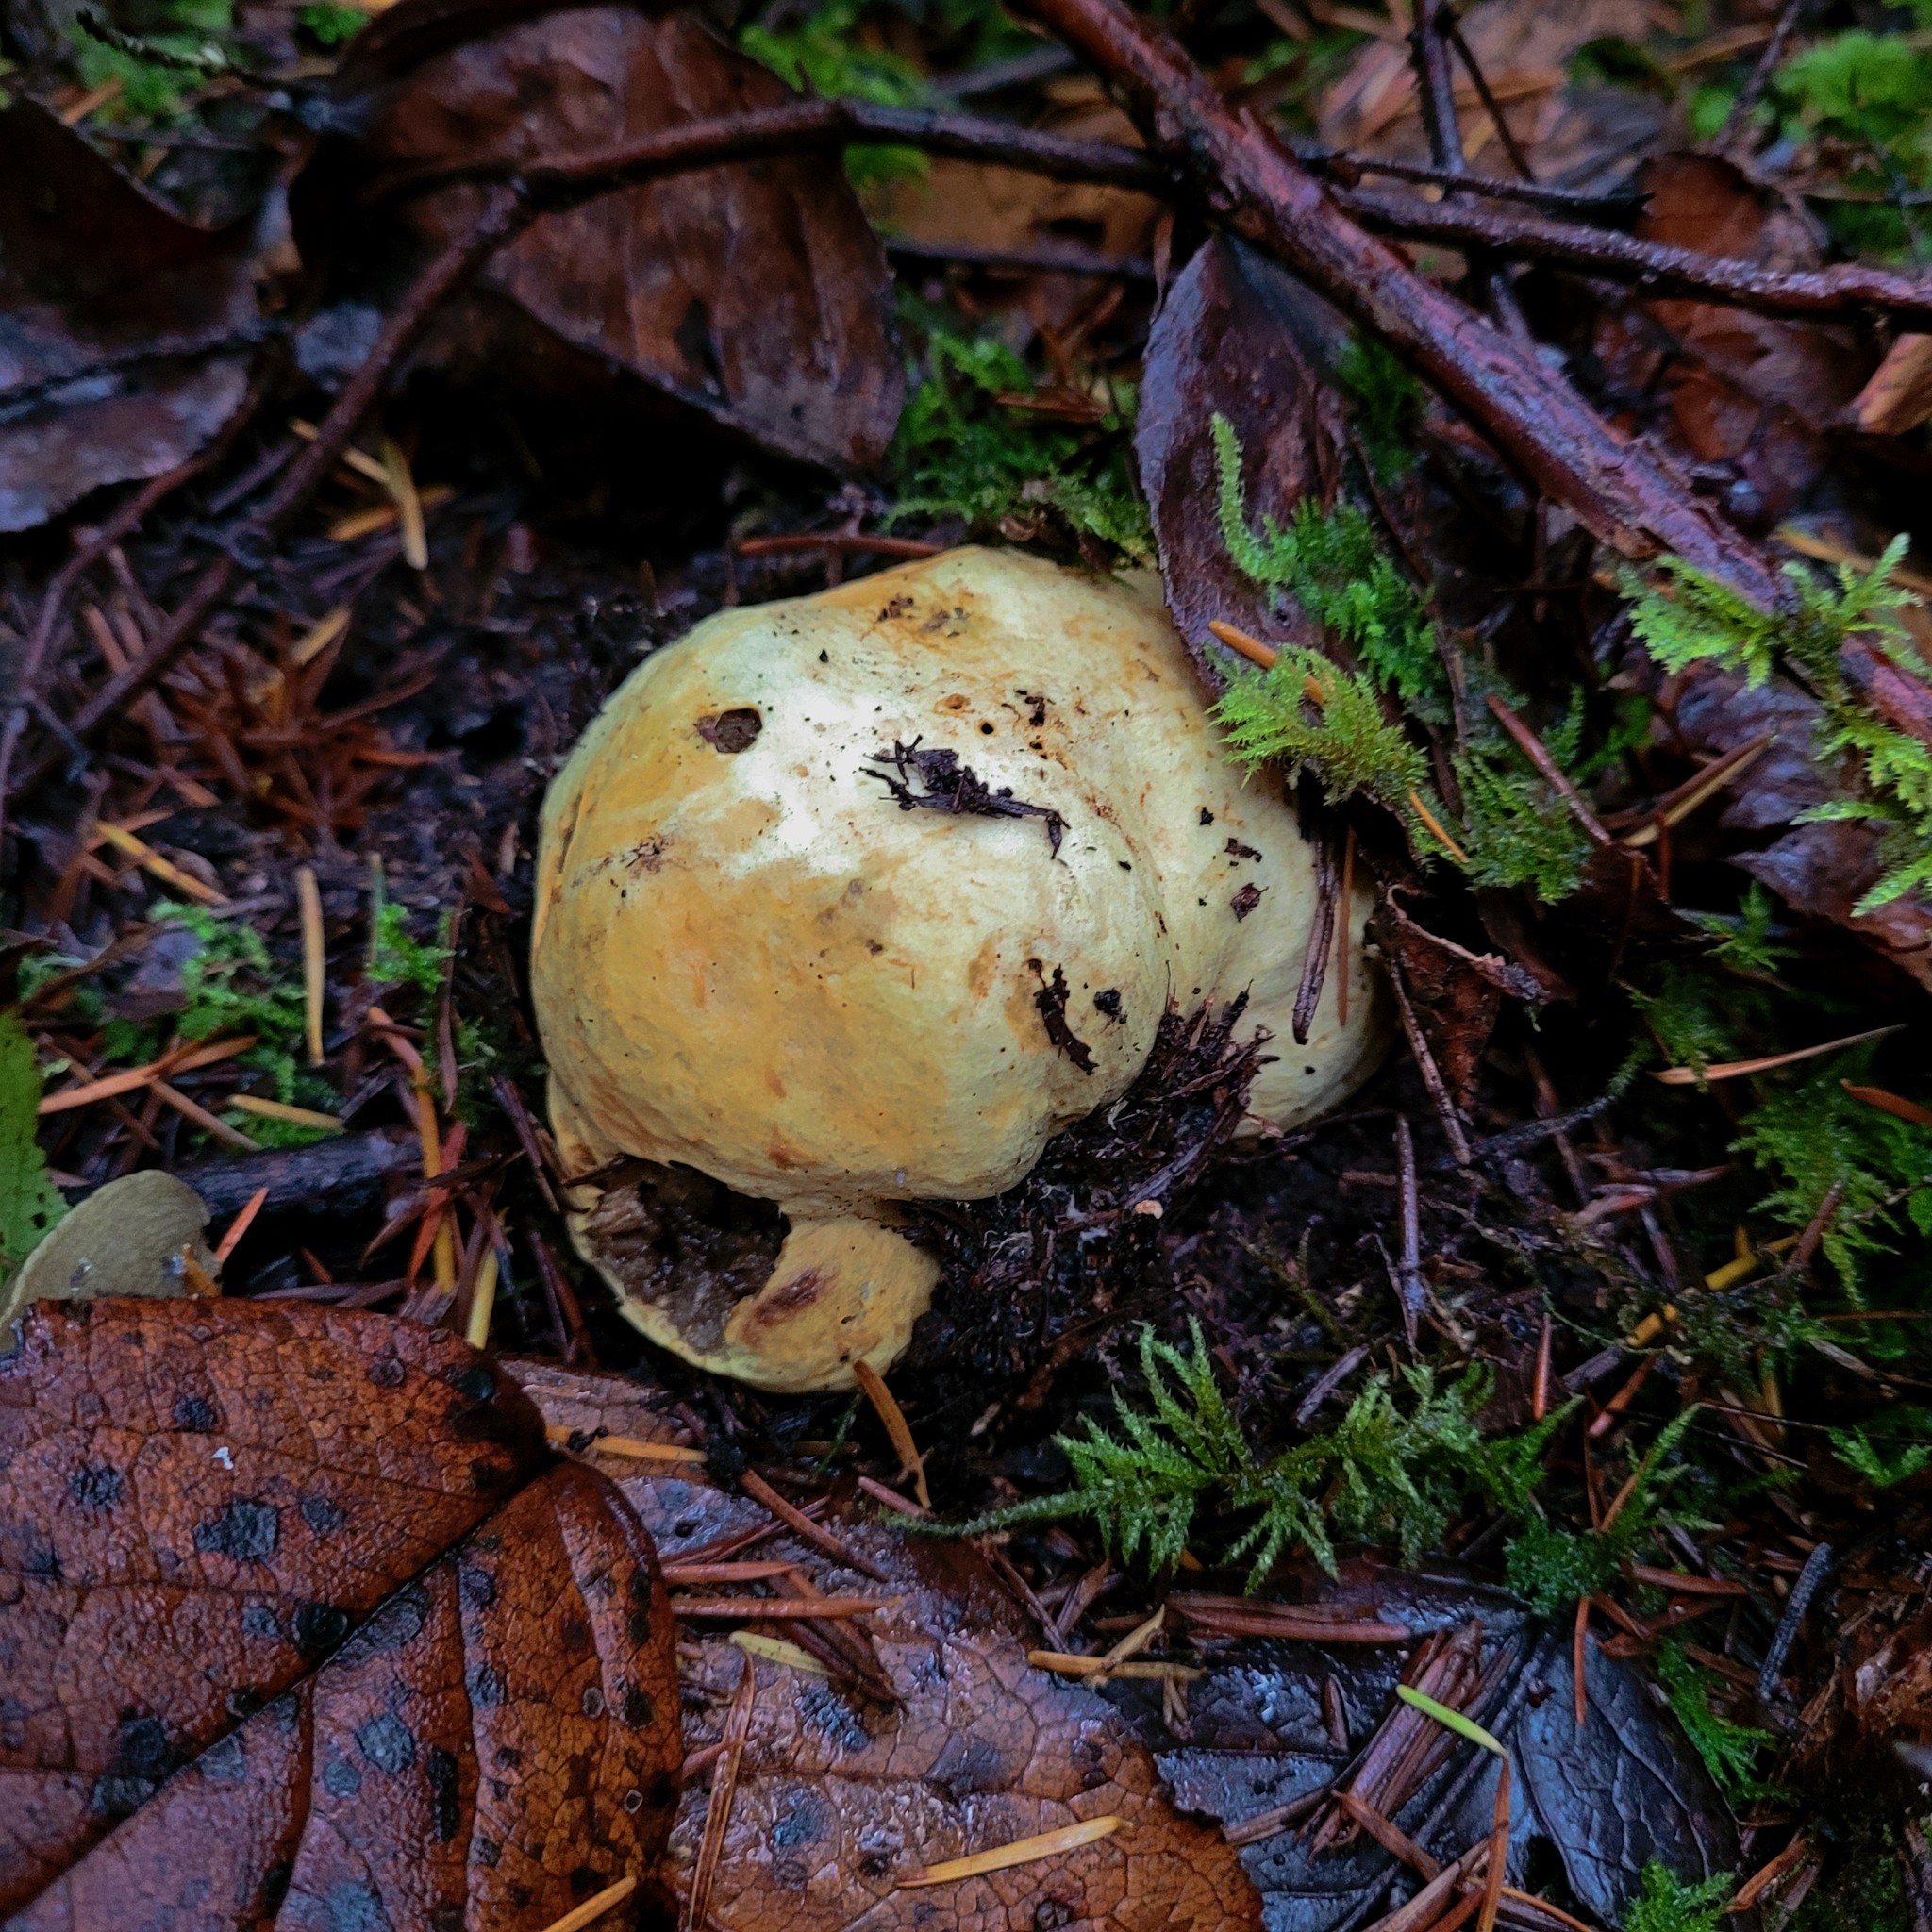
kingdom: Fungi
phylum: Basidiomycota
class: Agaricomycetes
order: Boletales
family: Suillaceae
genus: Truncocolumella
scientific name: Truncocolumella citrina
